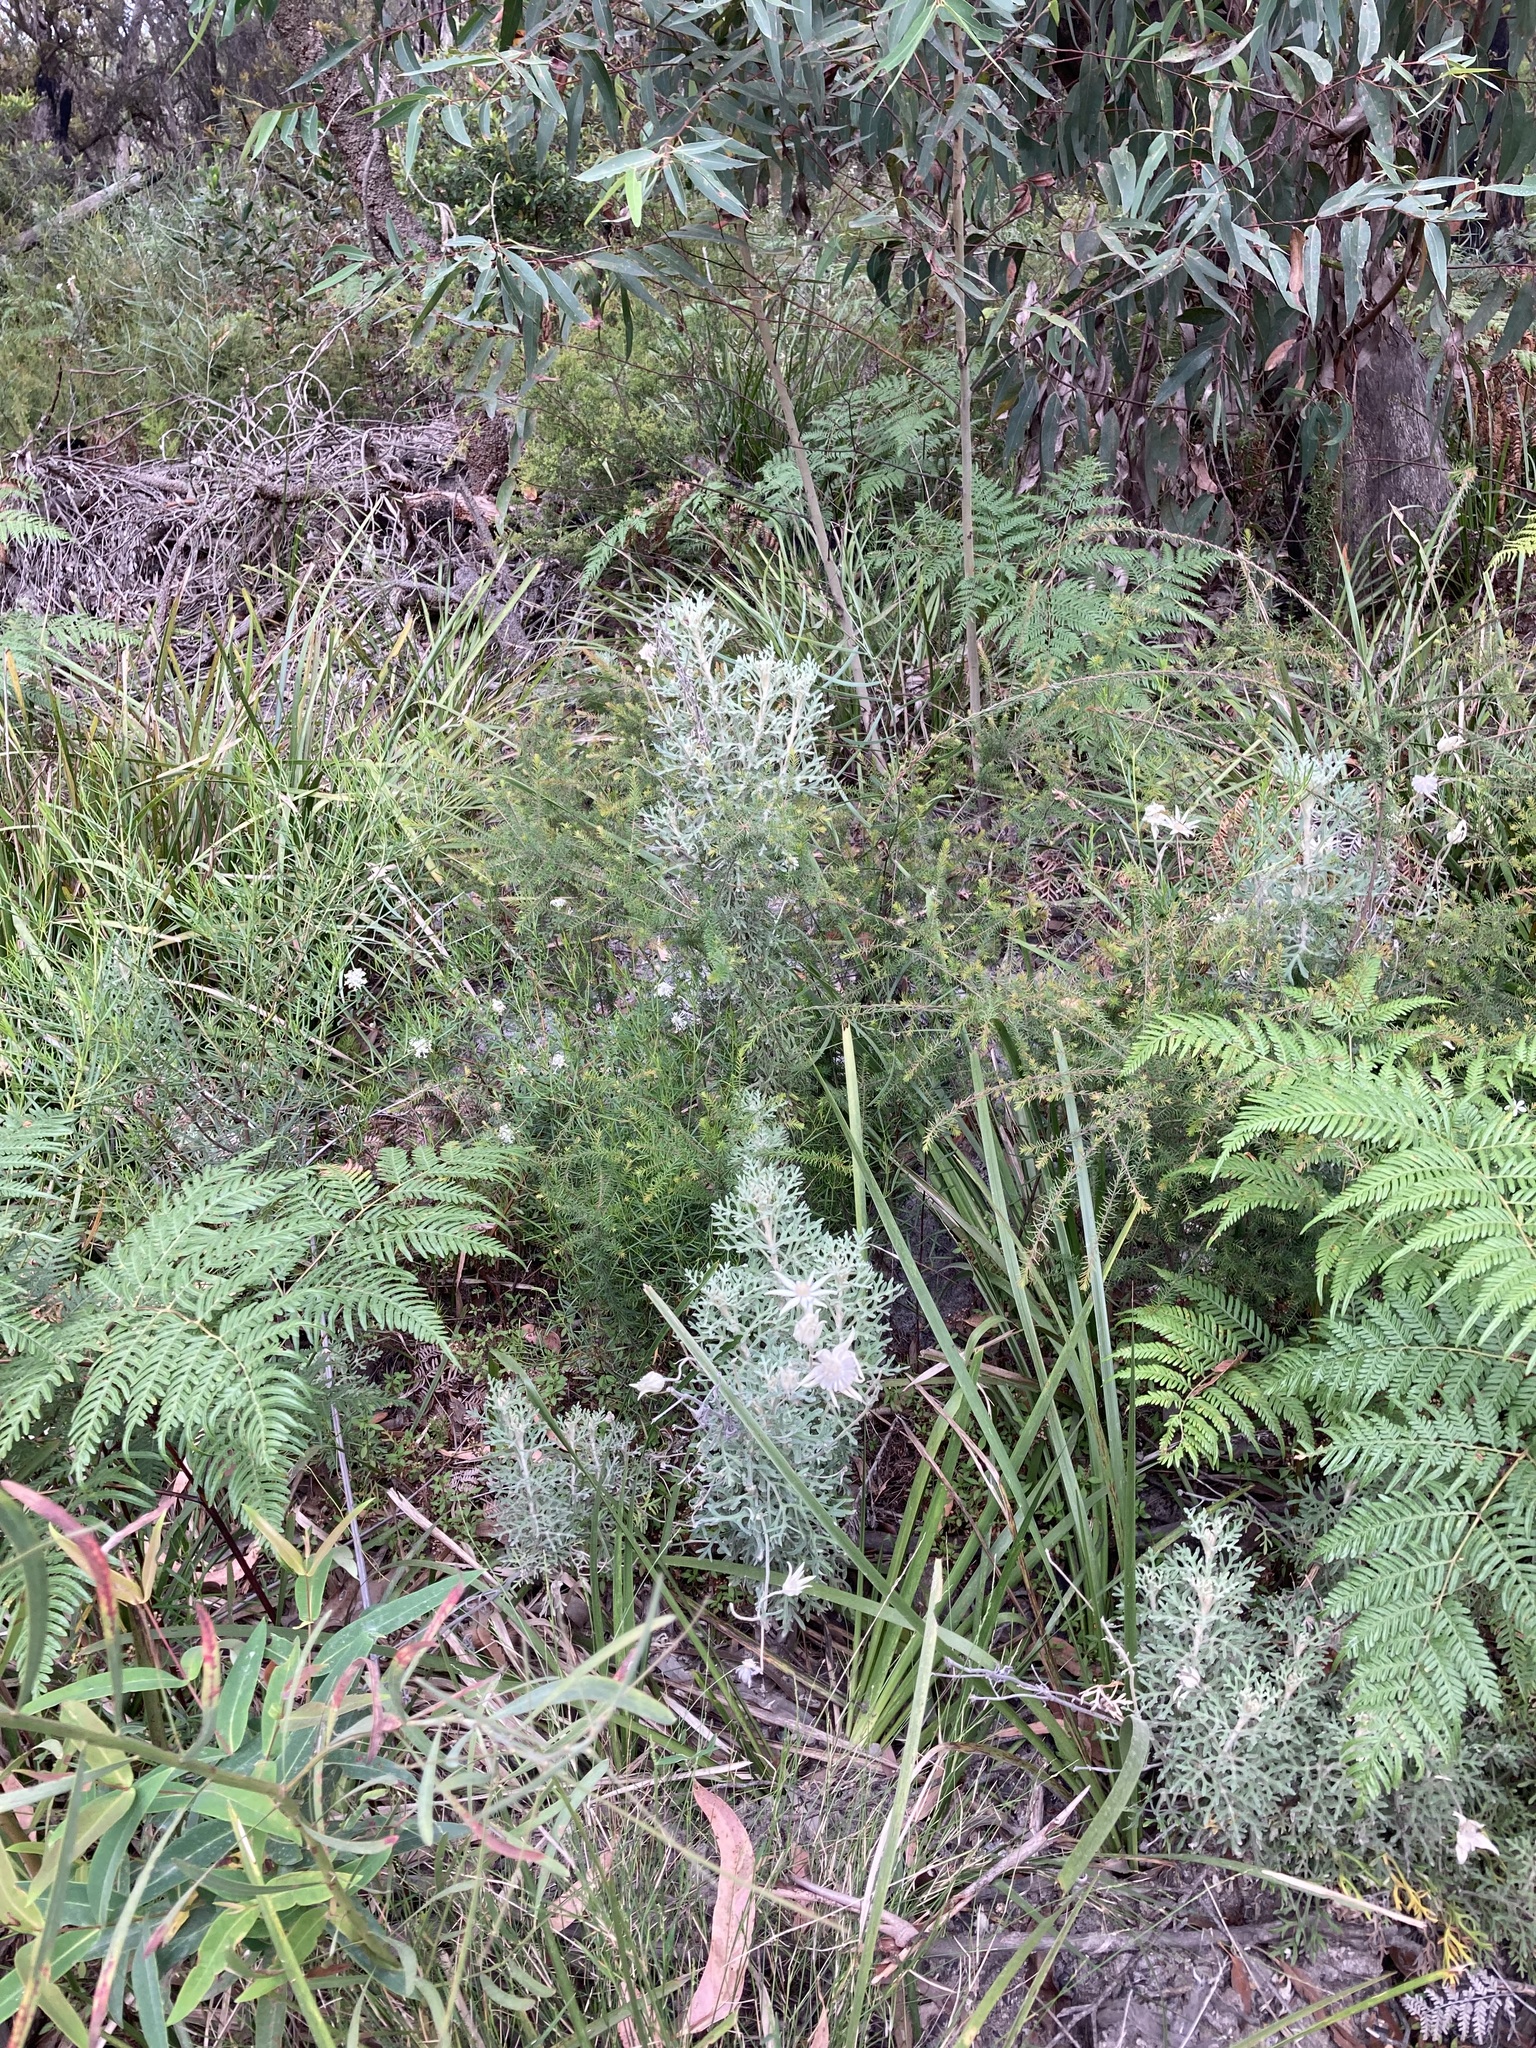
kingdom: Plantae
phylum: Tracheophyta
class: Magnoliopsida
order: Apiales
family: Apiaceae
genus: Actinotus
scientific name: Actinotus helianthi
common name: Flannel-flower
